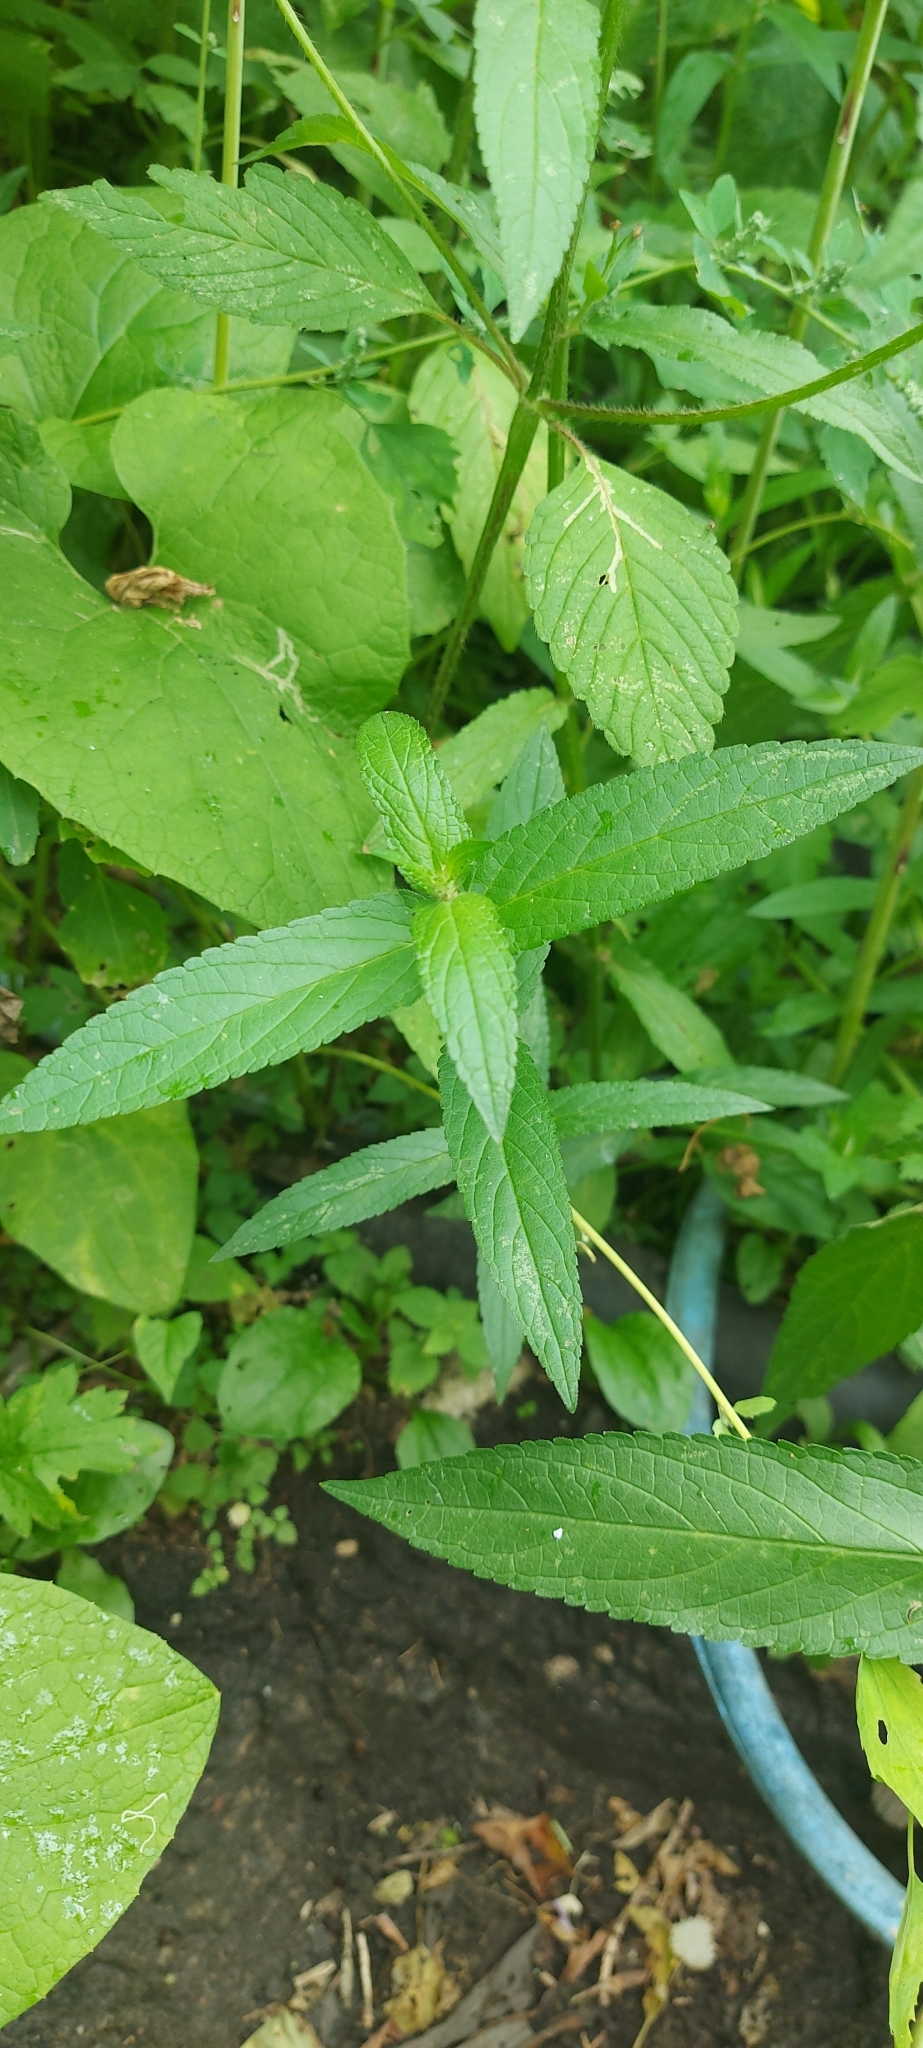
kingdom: Plantae
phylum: Tracheophyta
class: Magnoliopsida
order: Lamiales
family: Lamiaceae
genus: Stachys
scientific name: Stachys palustris
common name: Marsh woundwort
